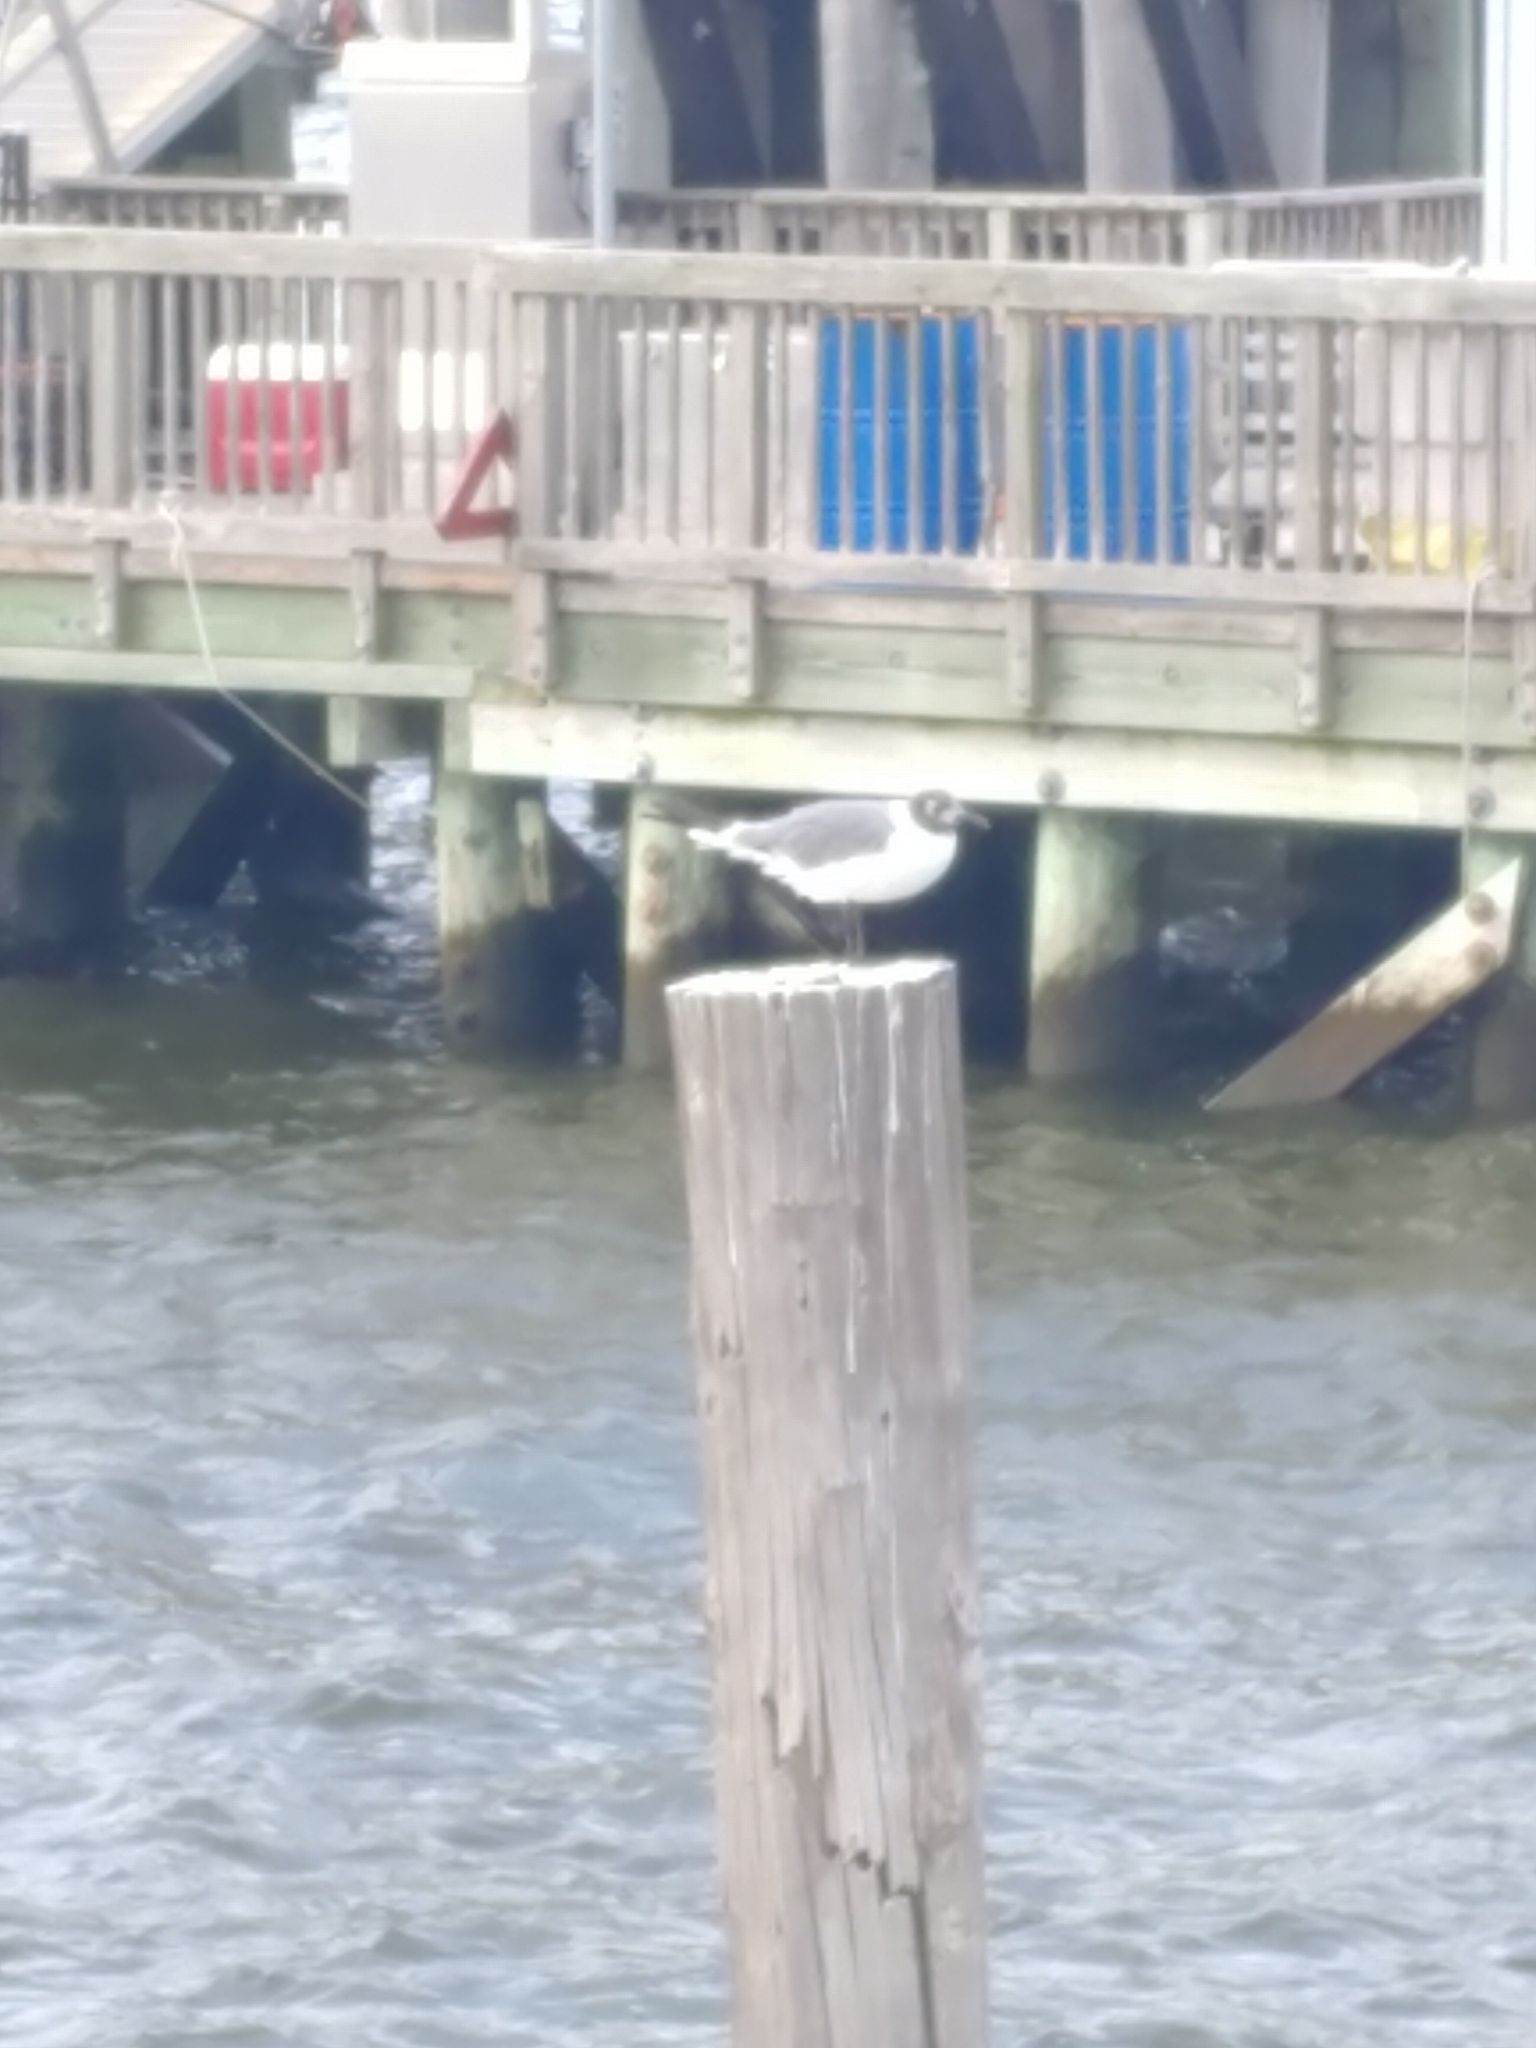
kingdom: Animalia
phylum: Chordata
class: Aves
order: Charadriiformes
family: Laridae
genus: Leucophaeus
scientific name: Leucophaeus atricilla
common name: Laughing gull
